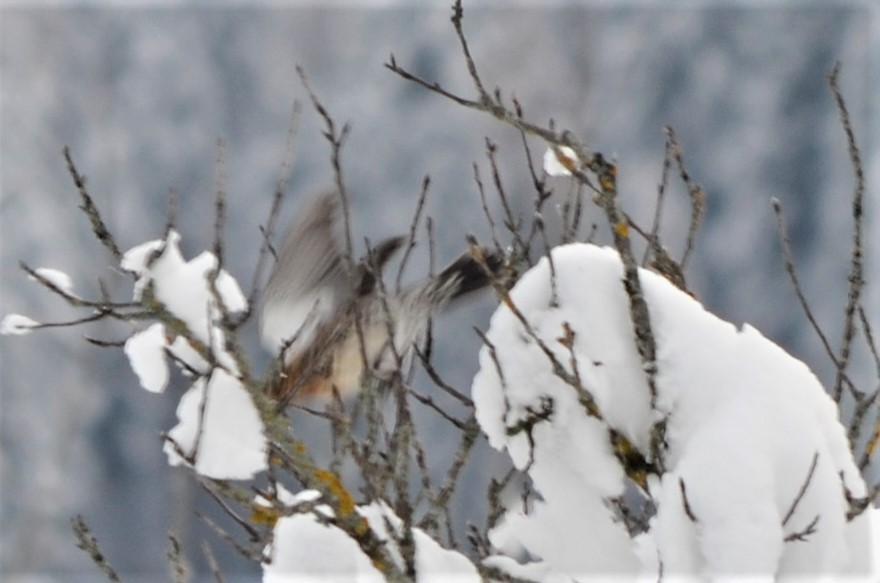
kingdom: Animalia
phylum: Chordata
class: Aves
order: Passeriformes
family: Turdidae
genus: Turdus
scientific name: Turdus pilaris
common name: Fieldfare
